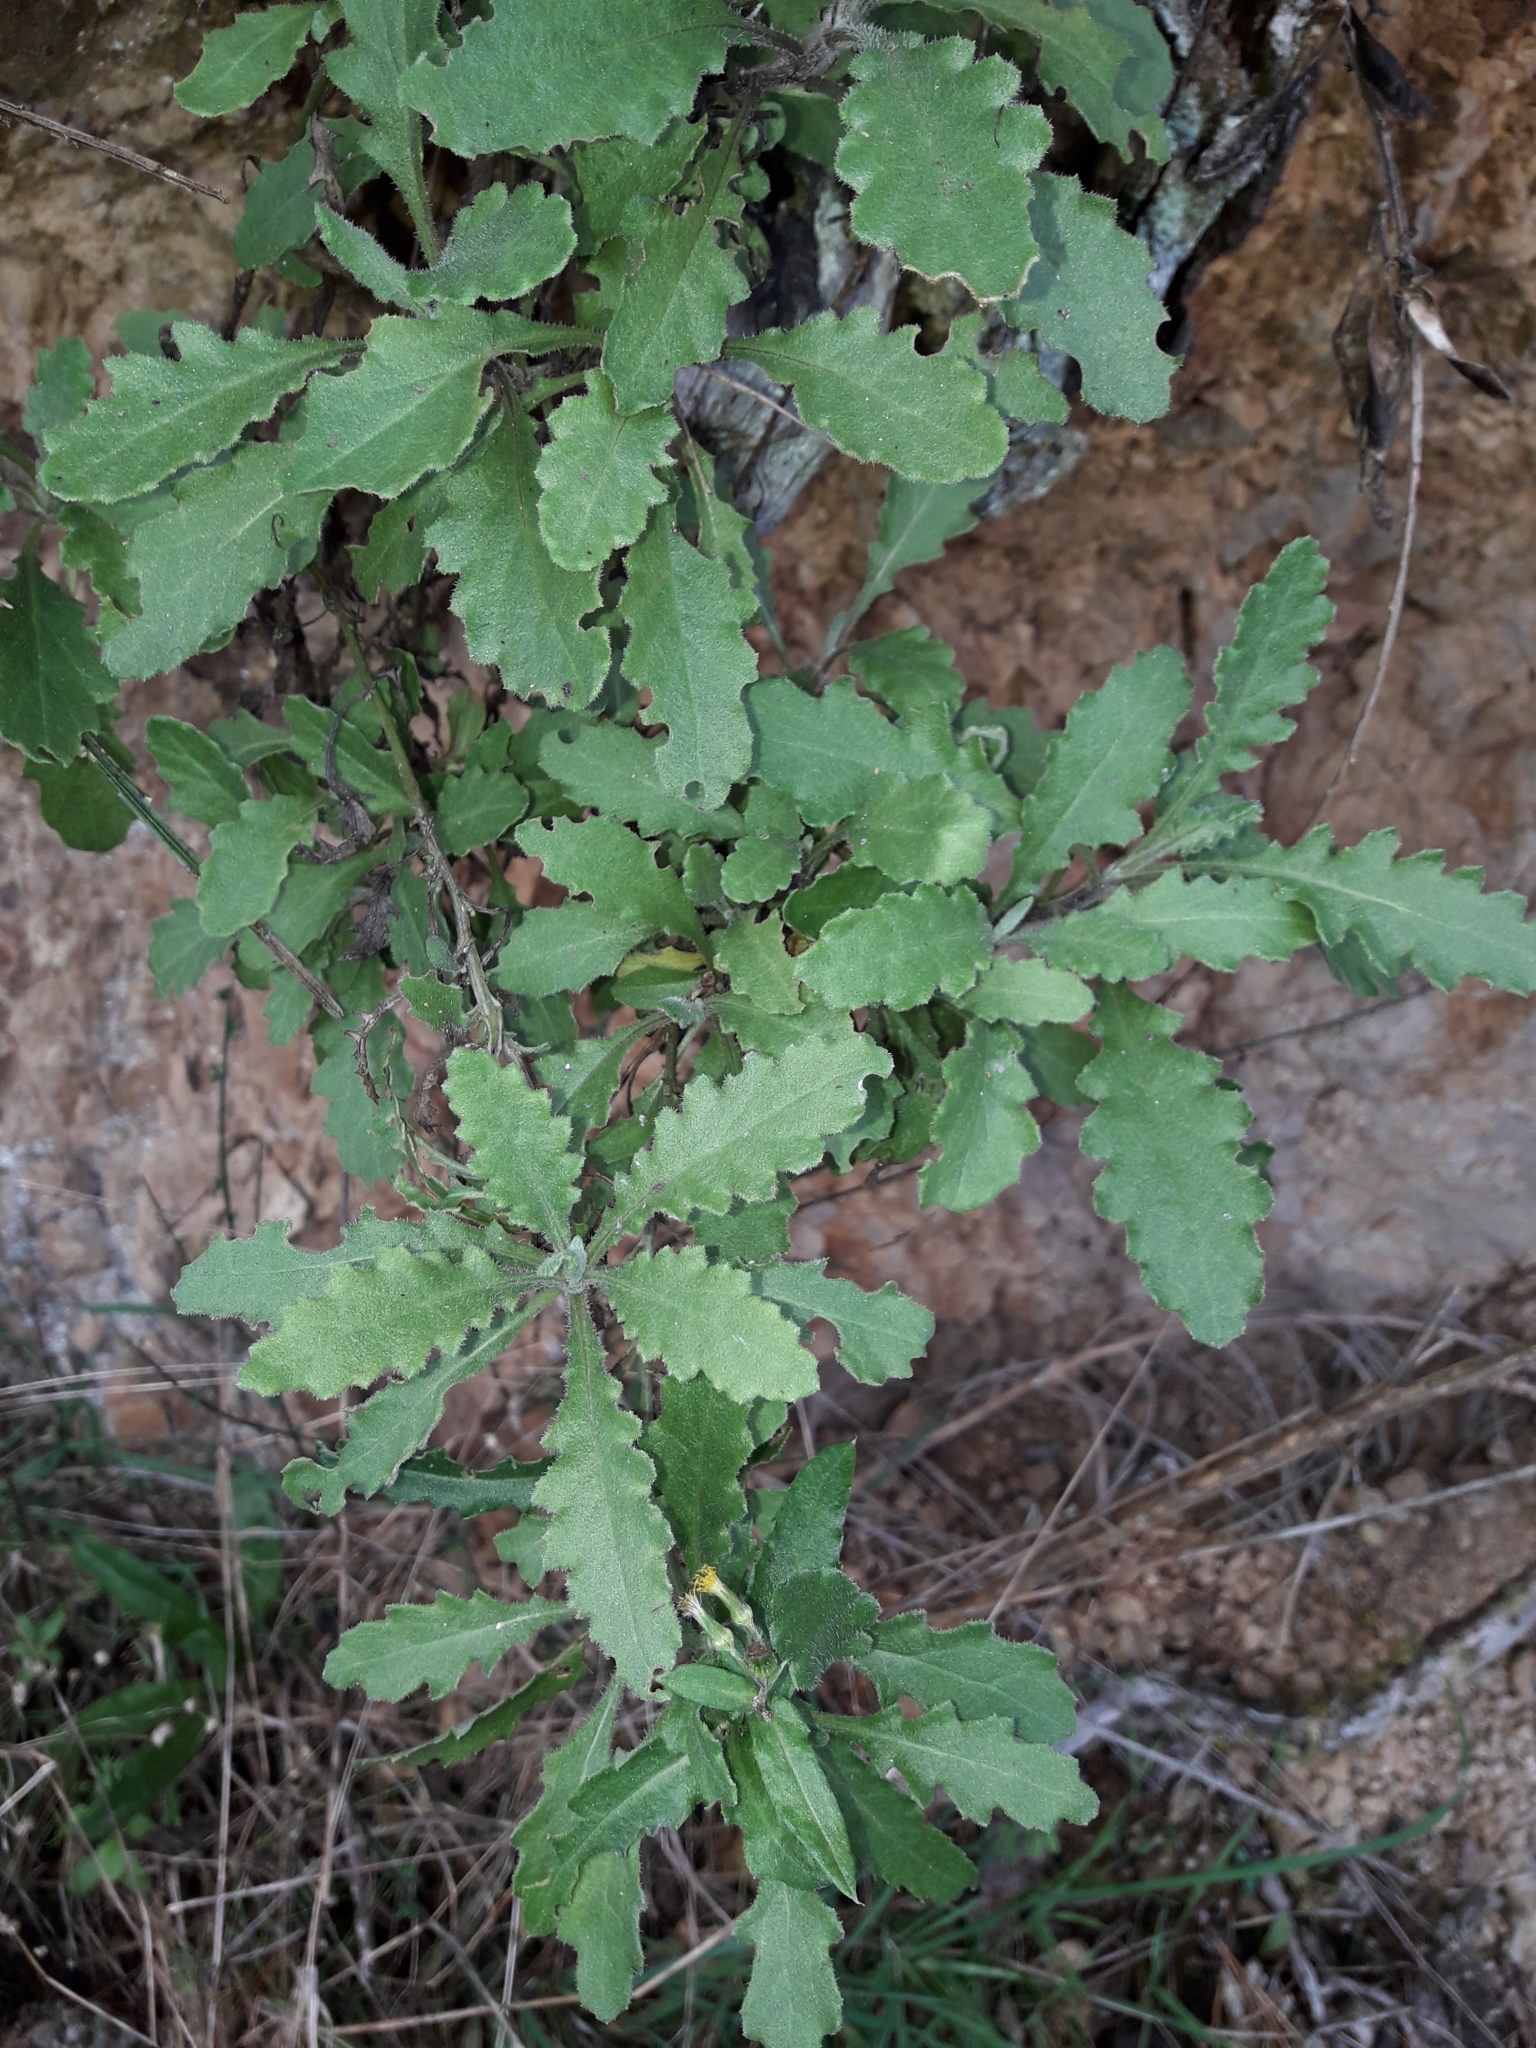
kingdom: Plantae
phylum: Tracheophyta
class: Magnoliopsida
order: Asterales
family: Asteraceae
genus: Senecio
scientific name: Senecio glomeratus
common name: Cutleaf burnweed
